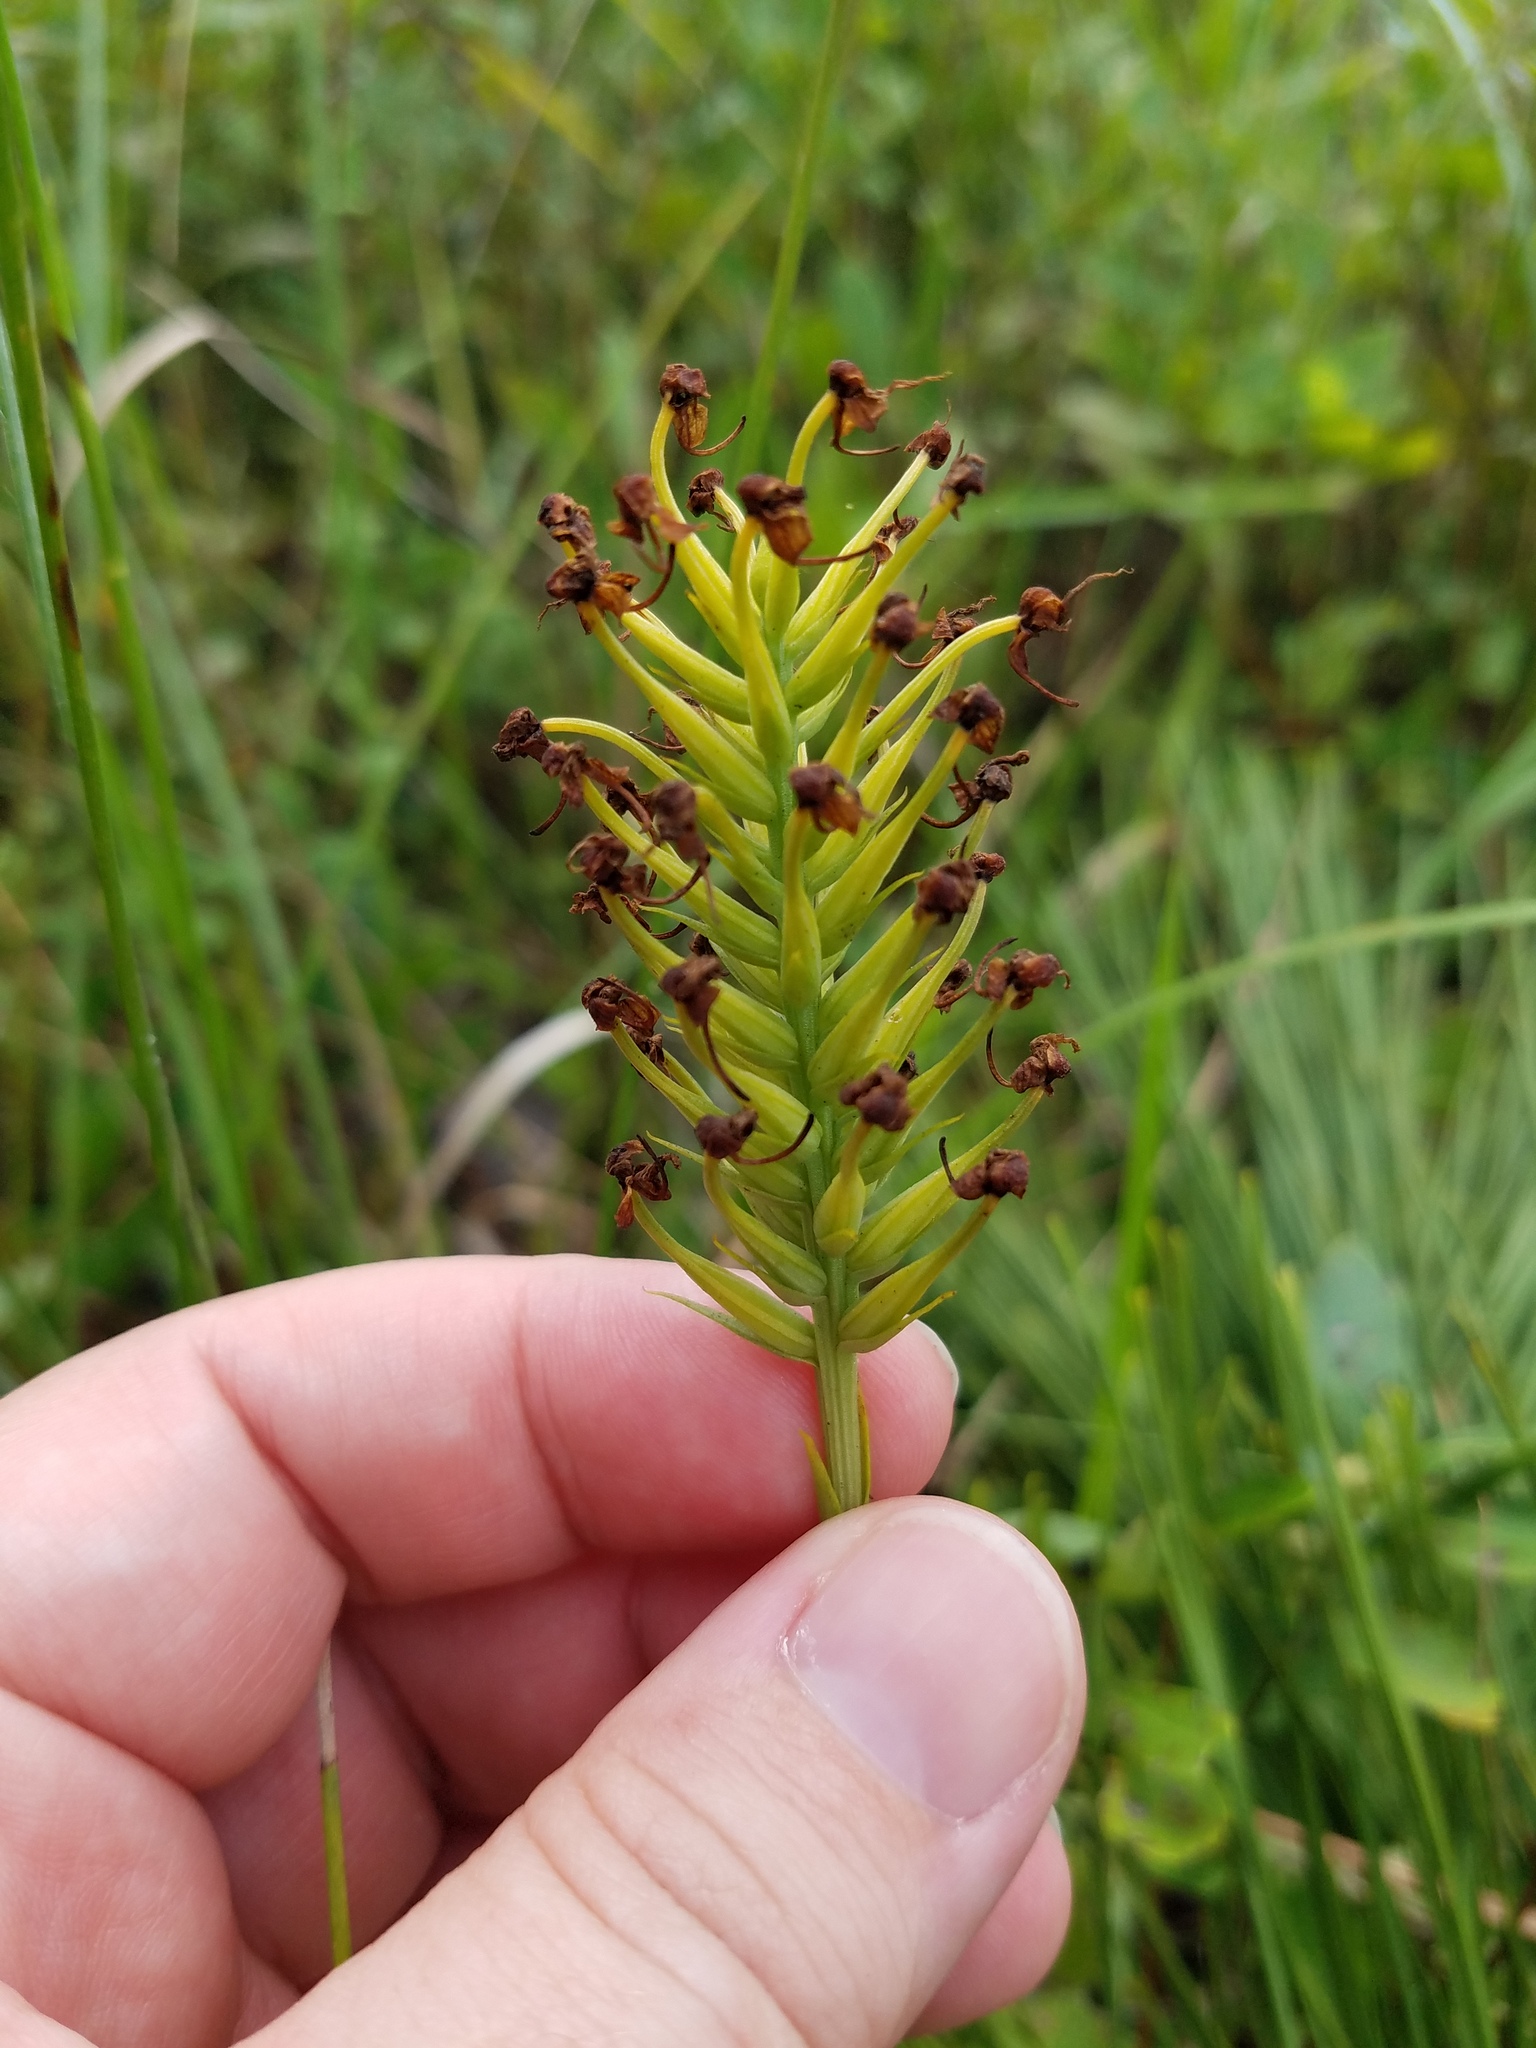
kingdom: Plantae
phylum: Tracheophyta
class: Liliopsida
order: Asparagales
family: Orchidaceae
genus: Platanthera
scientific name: Platanthera cristata
